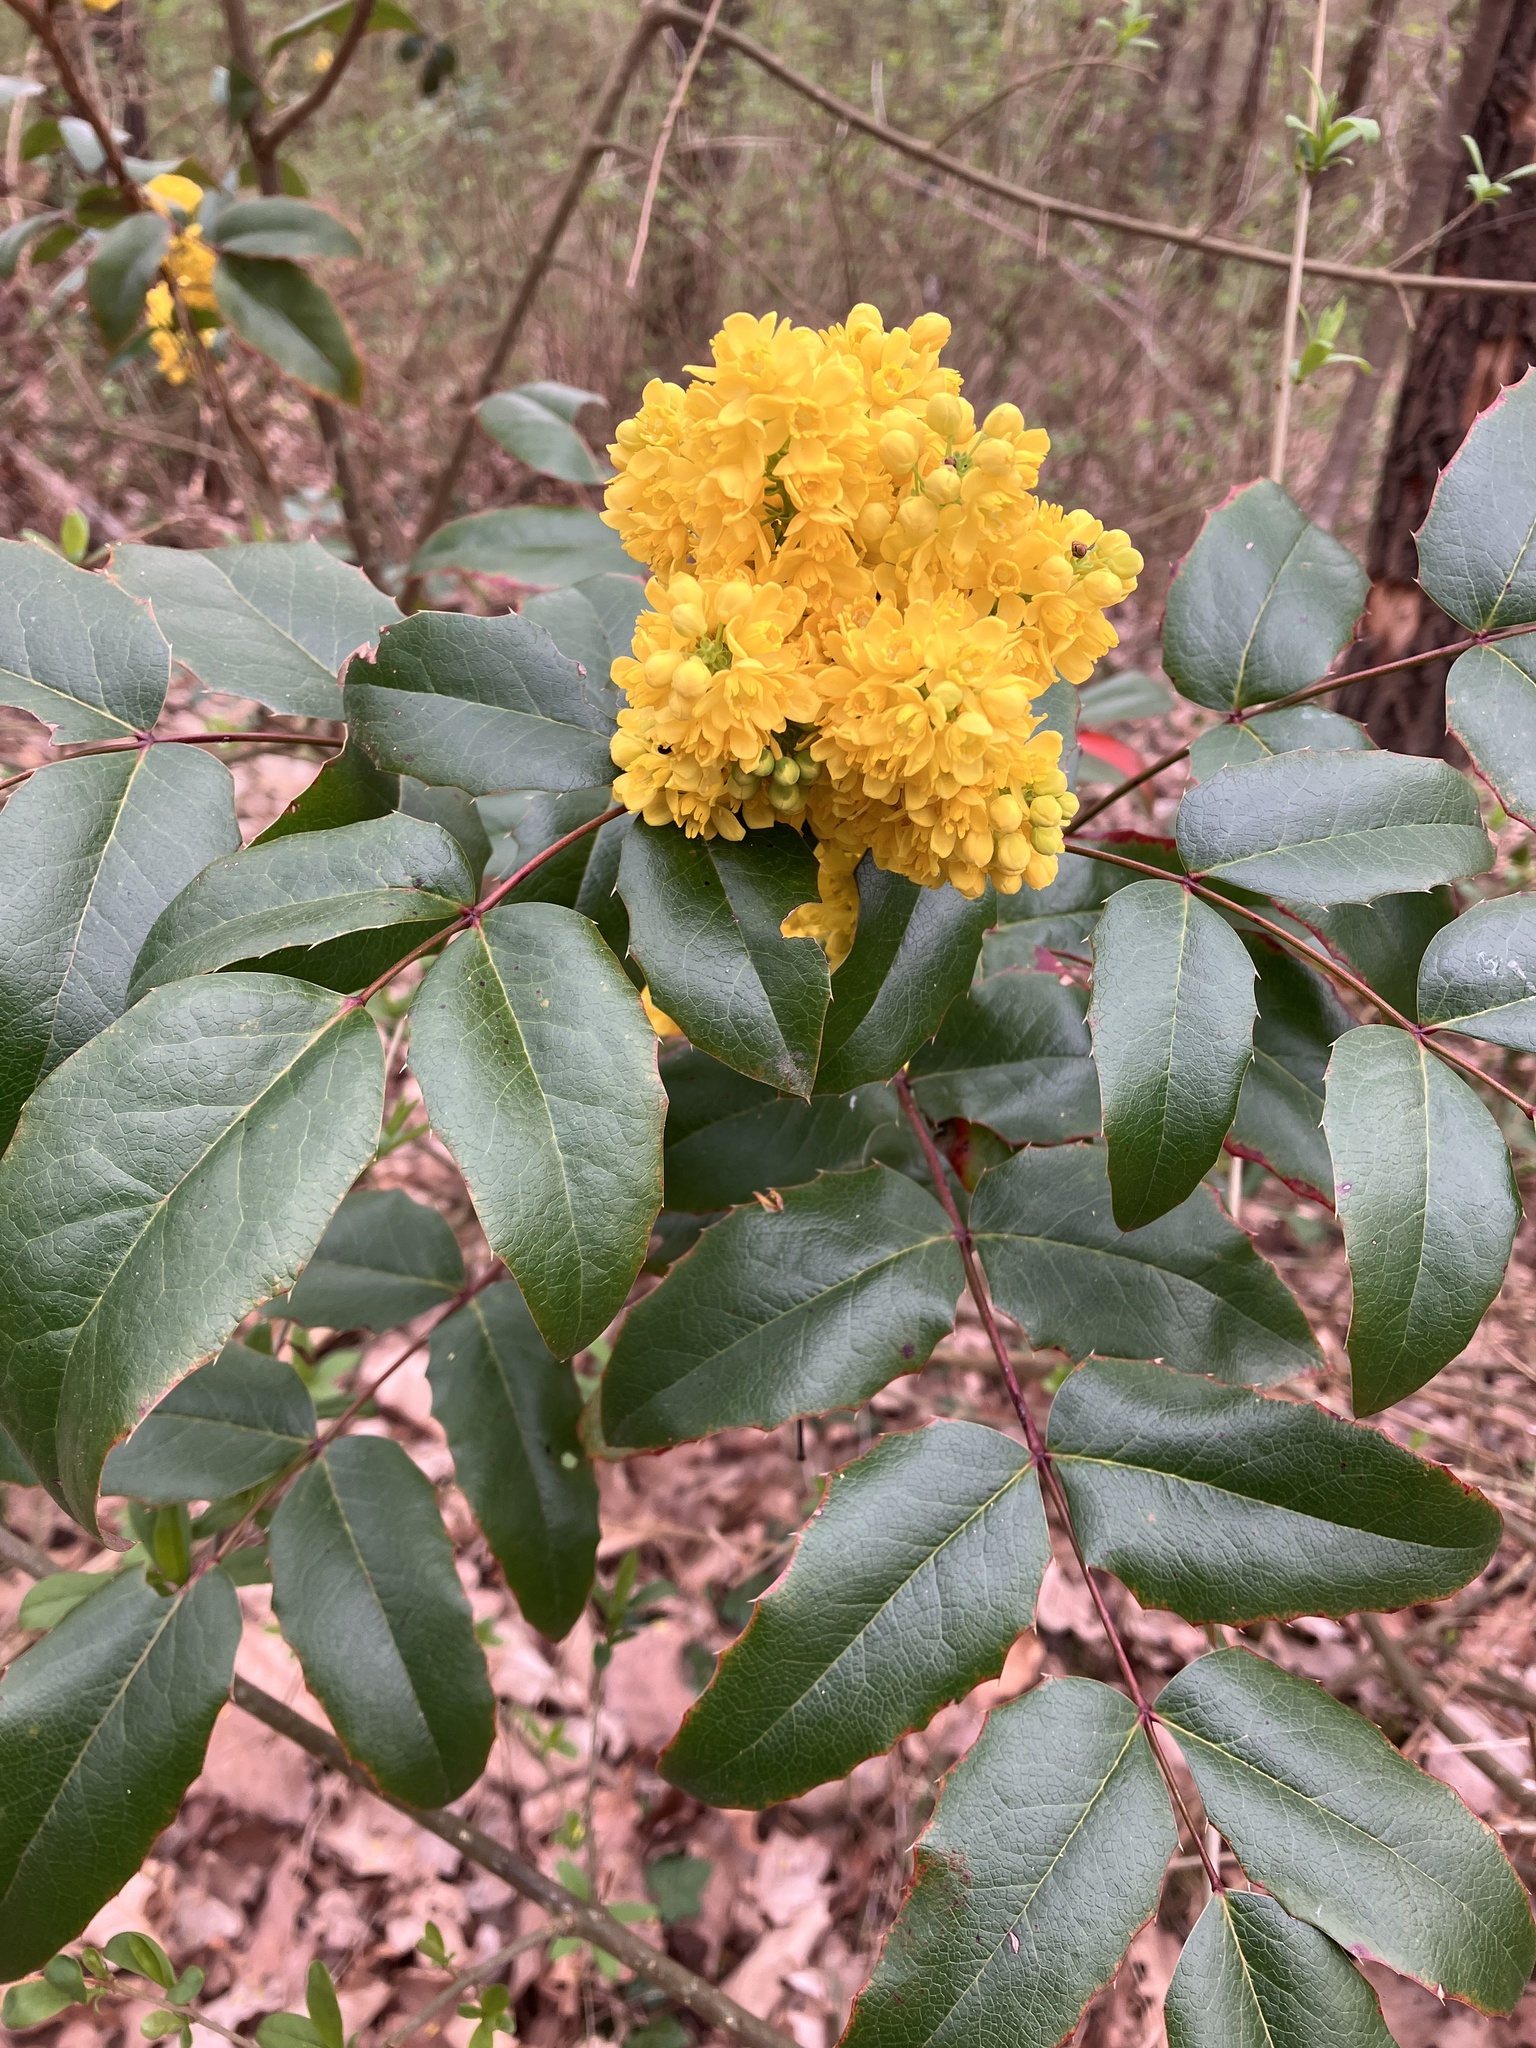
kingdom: Plantae
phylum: Tracheophyta
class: Magnoliopsida
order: Ranunculales
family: Berberidaceae
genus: Mahonia
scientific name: Mahonia aquifolium
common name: Oregon-grape
